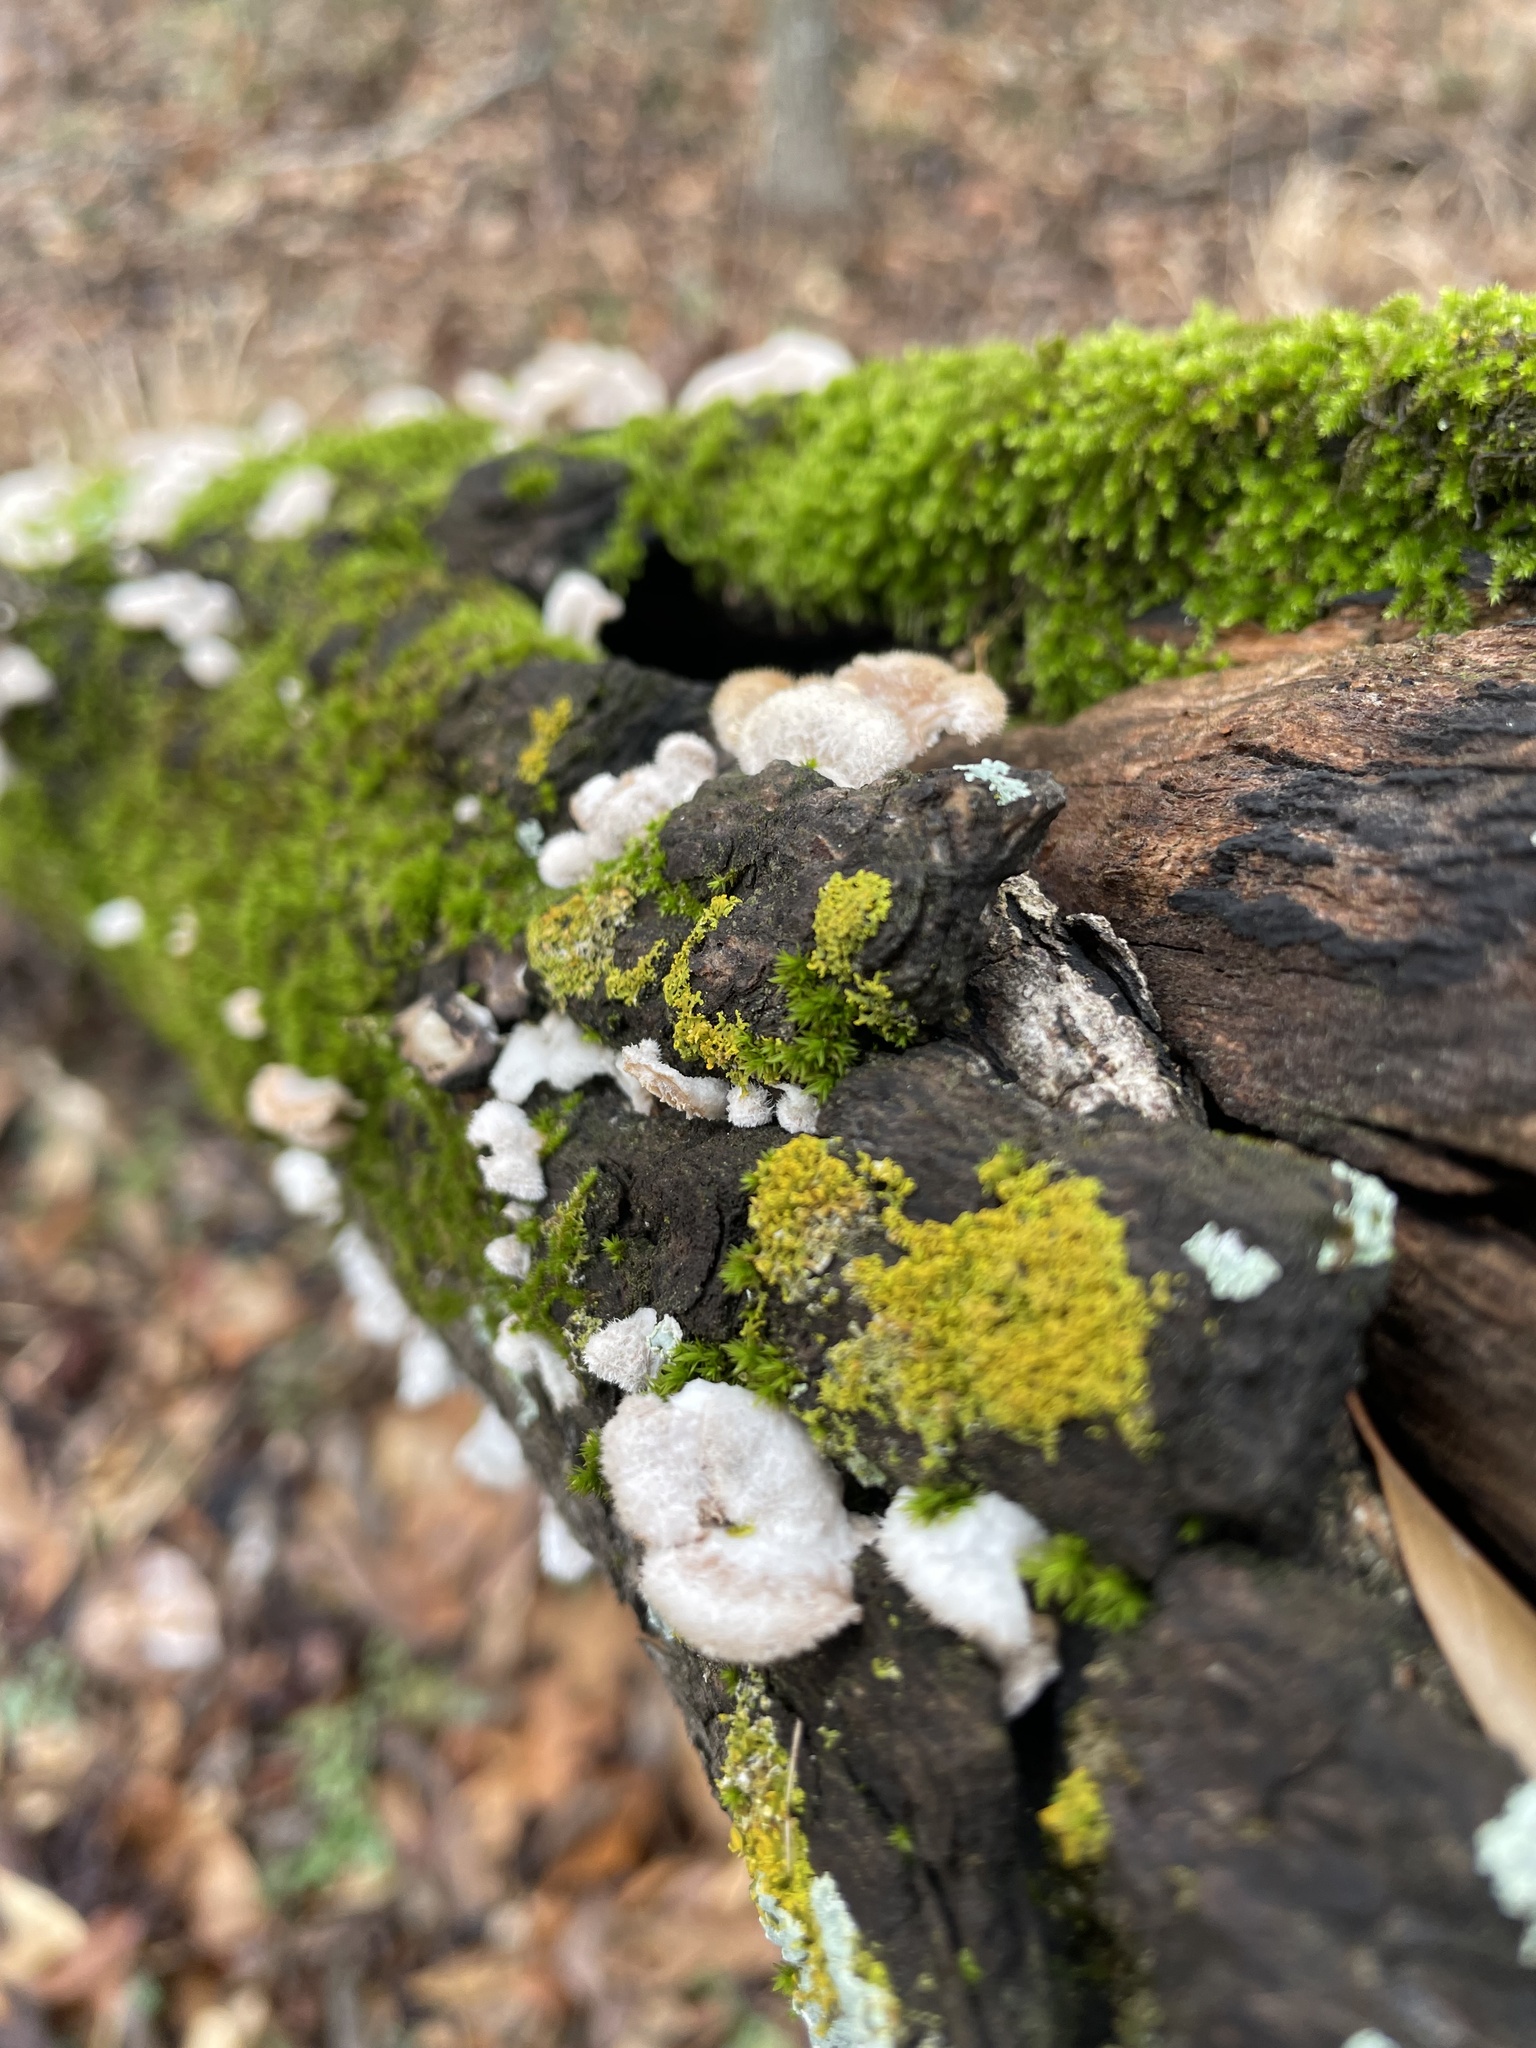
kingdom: Fungi
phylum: Basidiomycota
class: Agaricomycetes
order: Agaricales
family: Schizophyllaceae
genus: Schizophyllum
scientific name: Schizophyllum commune
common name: Common porecrust
